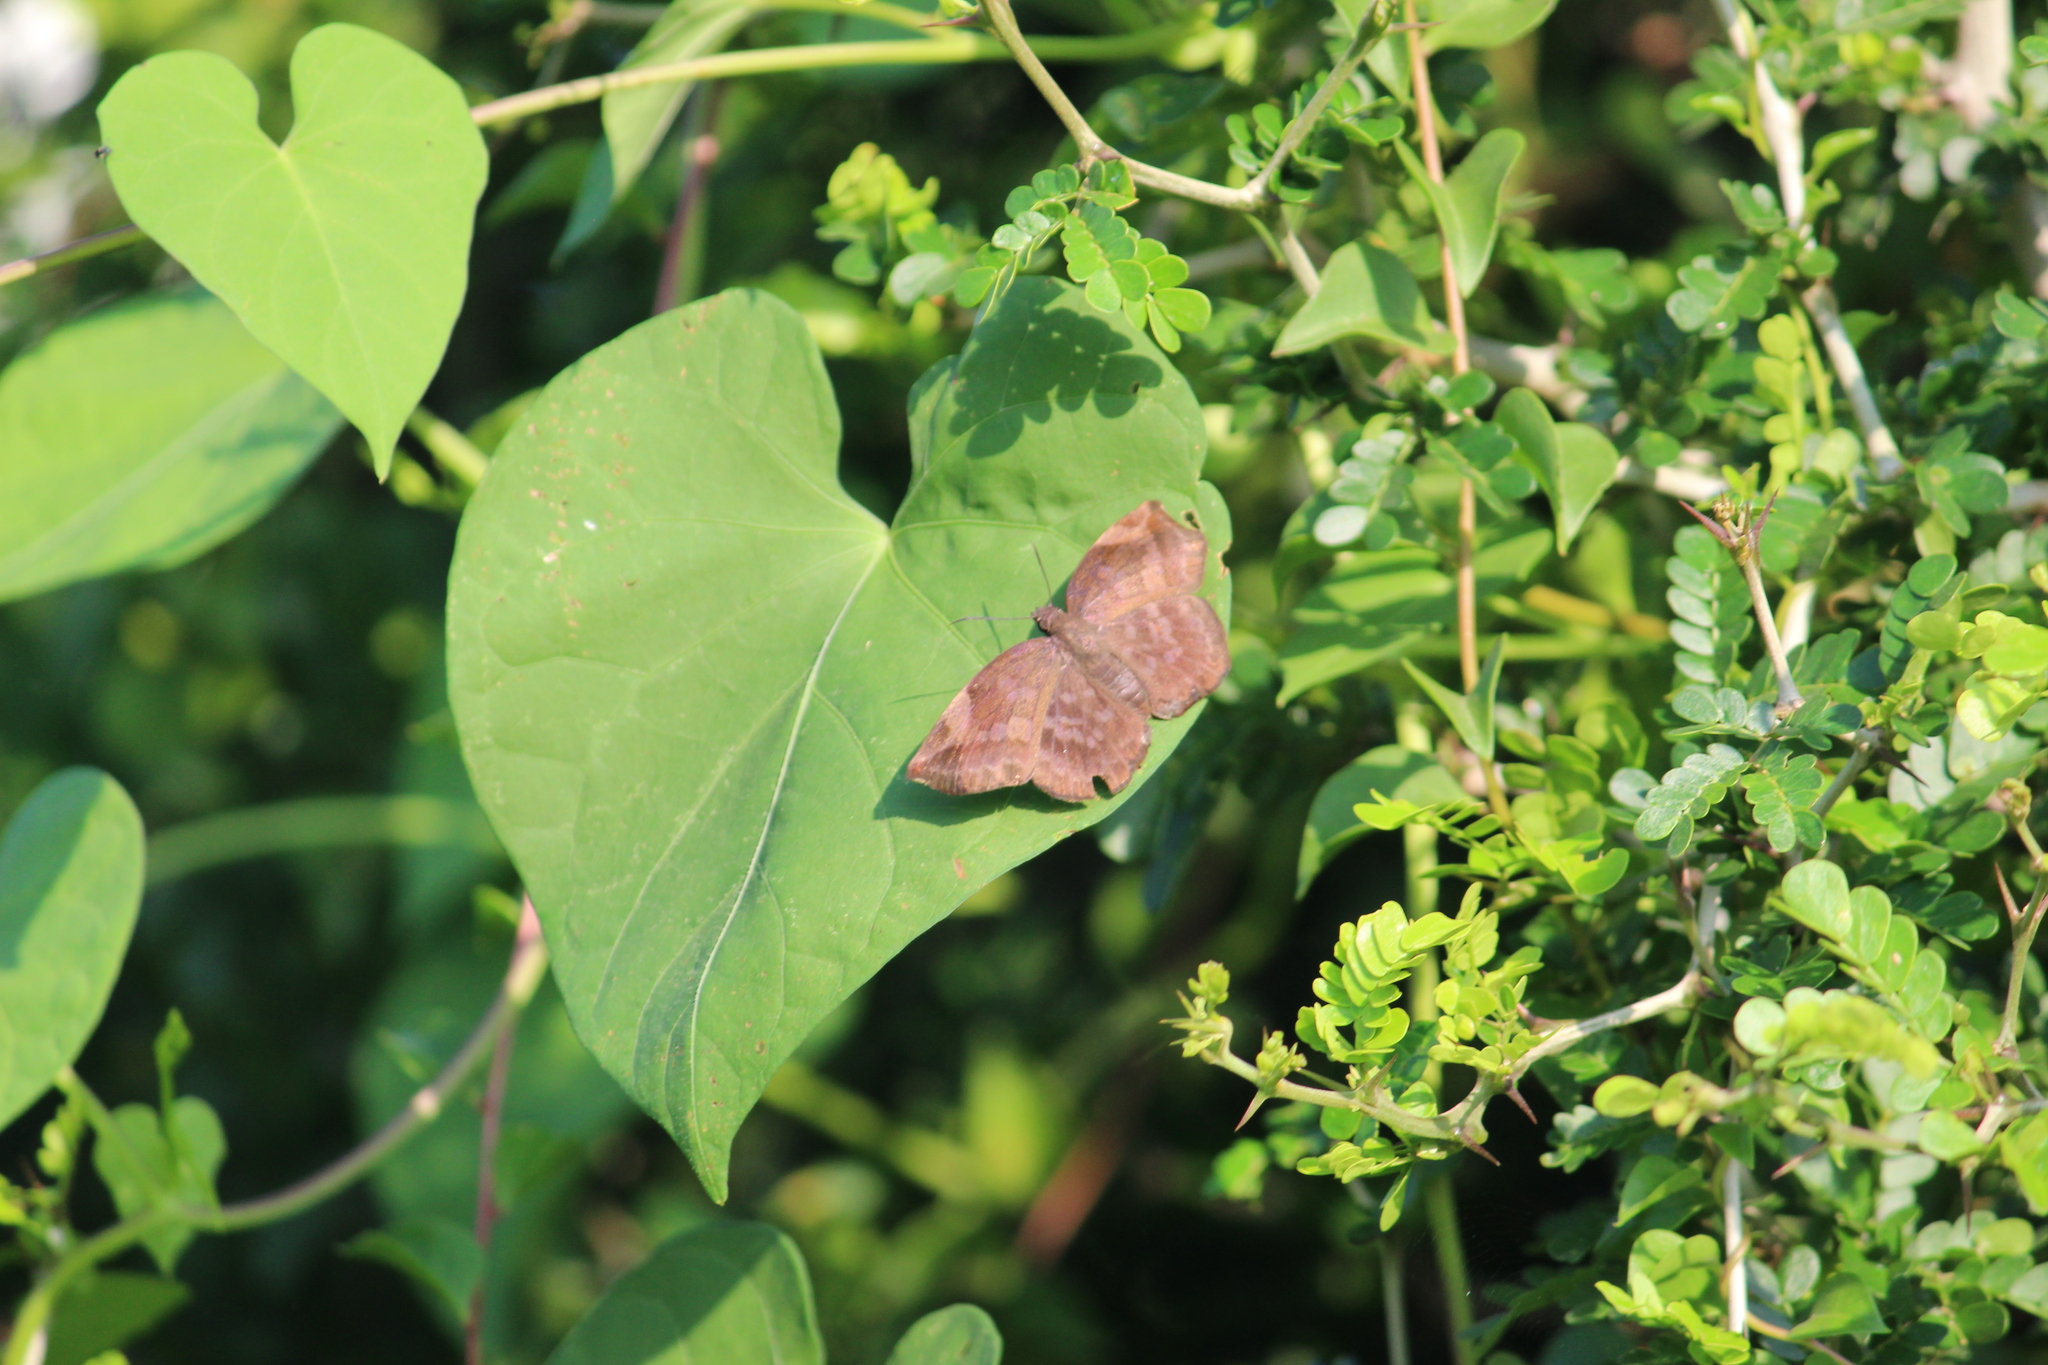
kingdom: Animalia
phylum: Arthropoda
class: Insecta
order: Lepidoptera
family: Hesperiidae
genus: Achlyodes
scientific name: Achlyodes thraso
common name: Sickle-winged skipper
